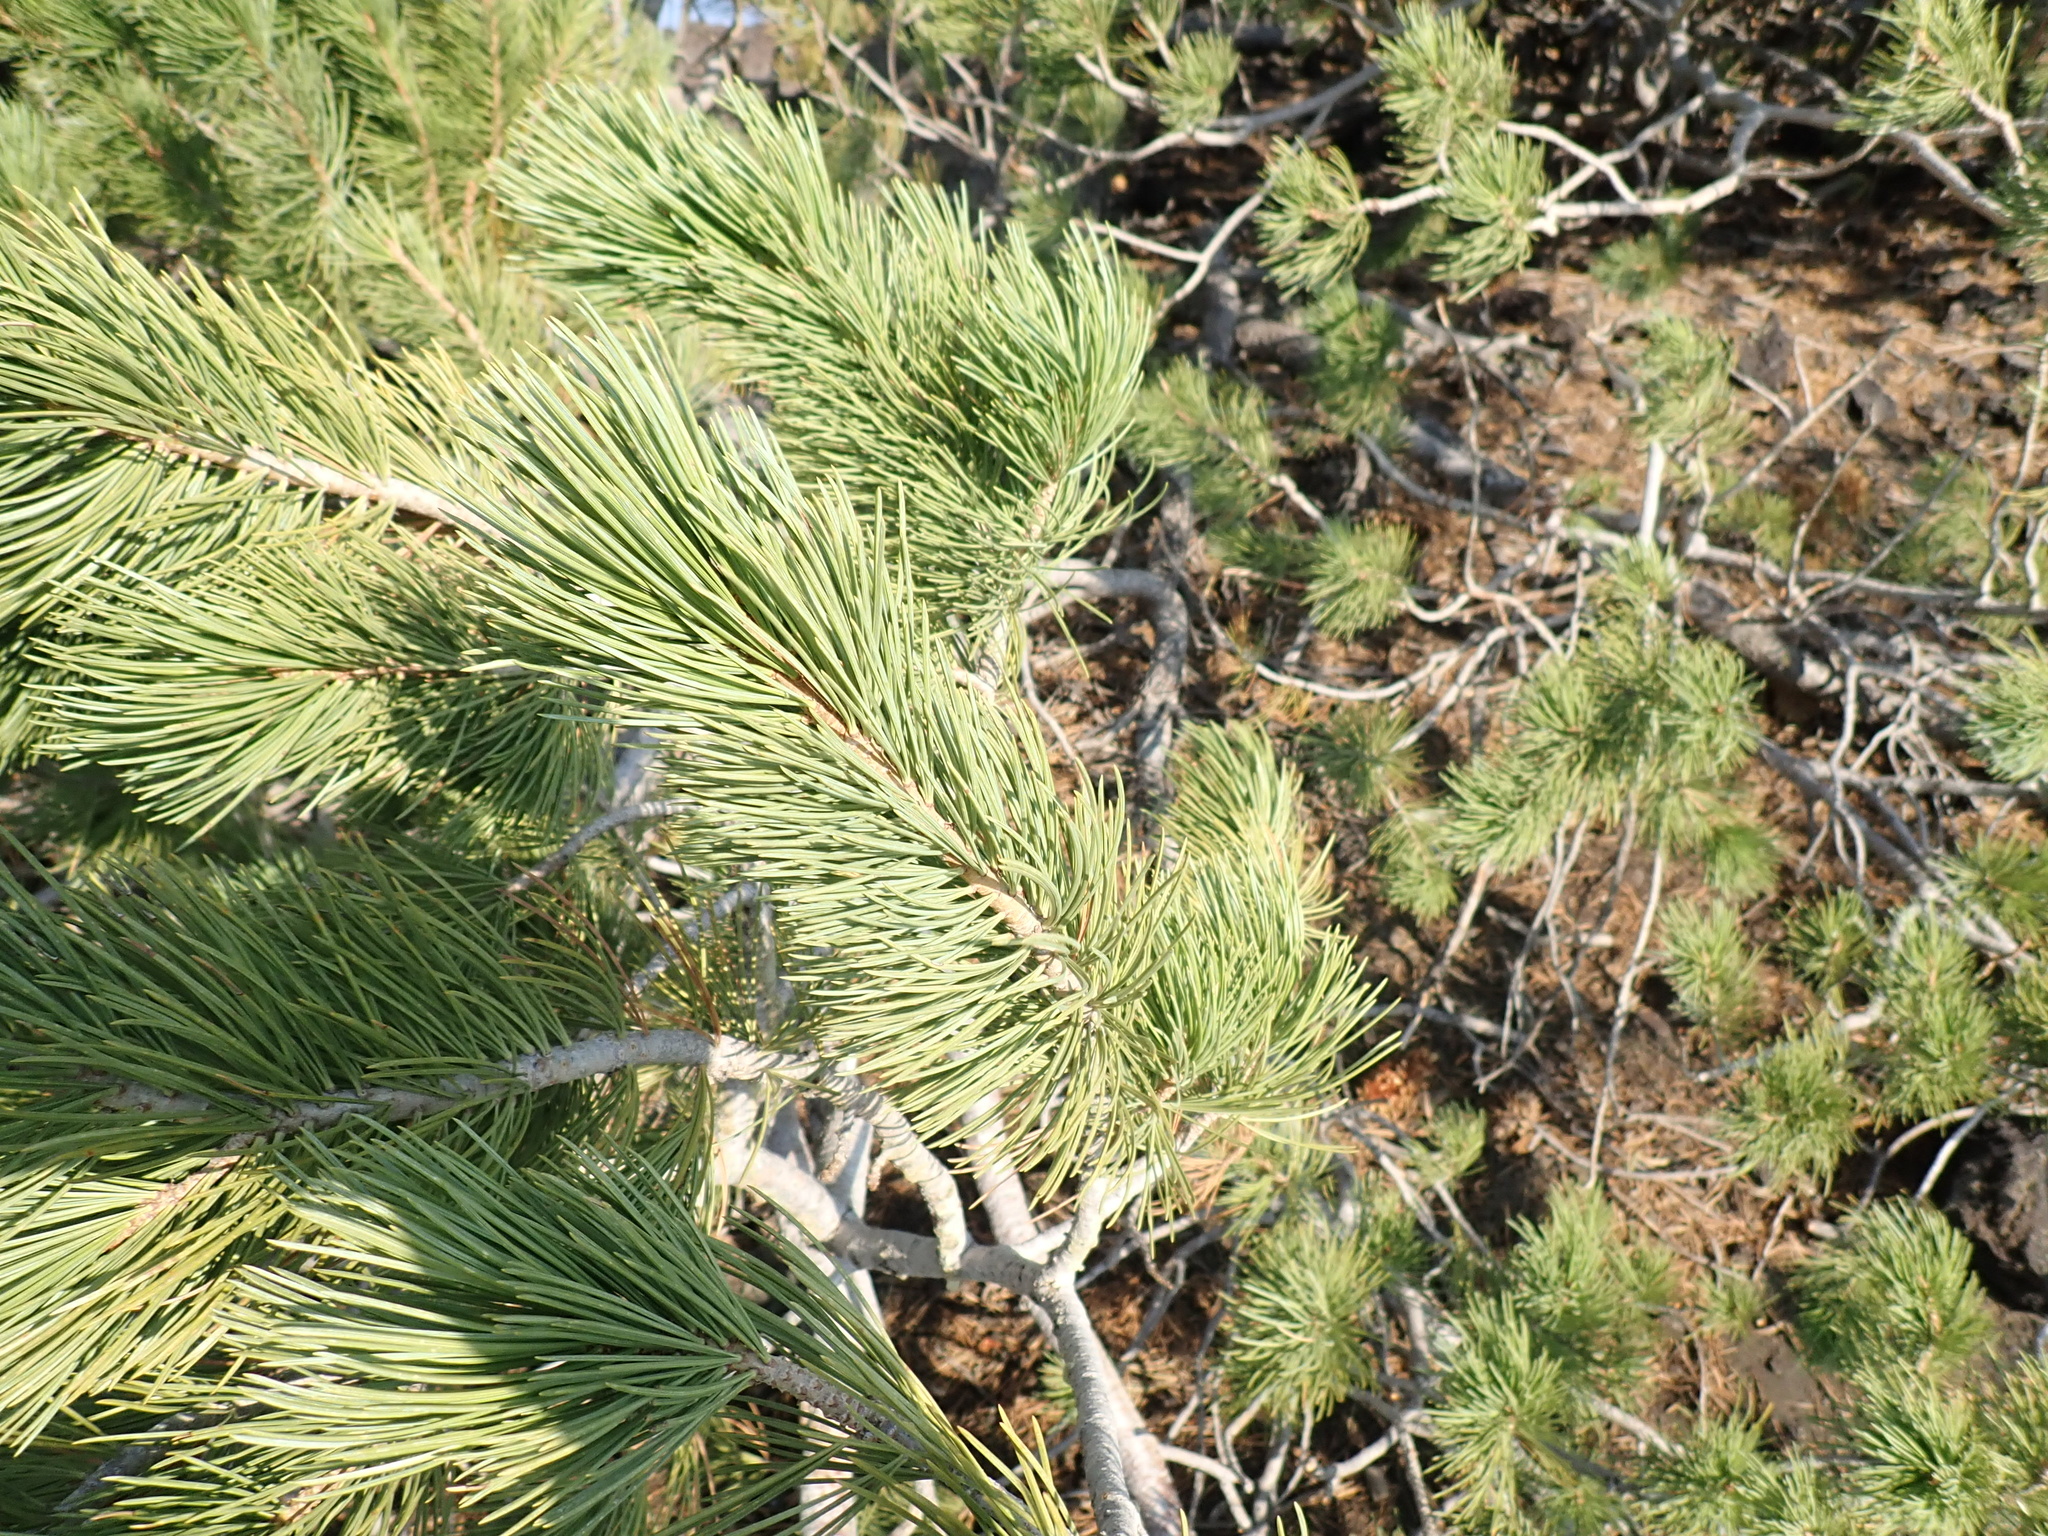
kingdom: Plantae
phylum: Tracheophyta
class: Pinopsida
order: Pinales
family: Pinaceae
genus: Pinus
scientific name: Pinus flexilis
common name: Limber pine
